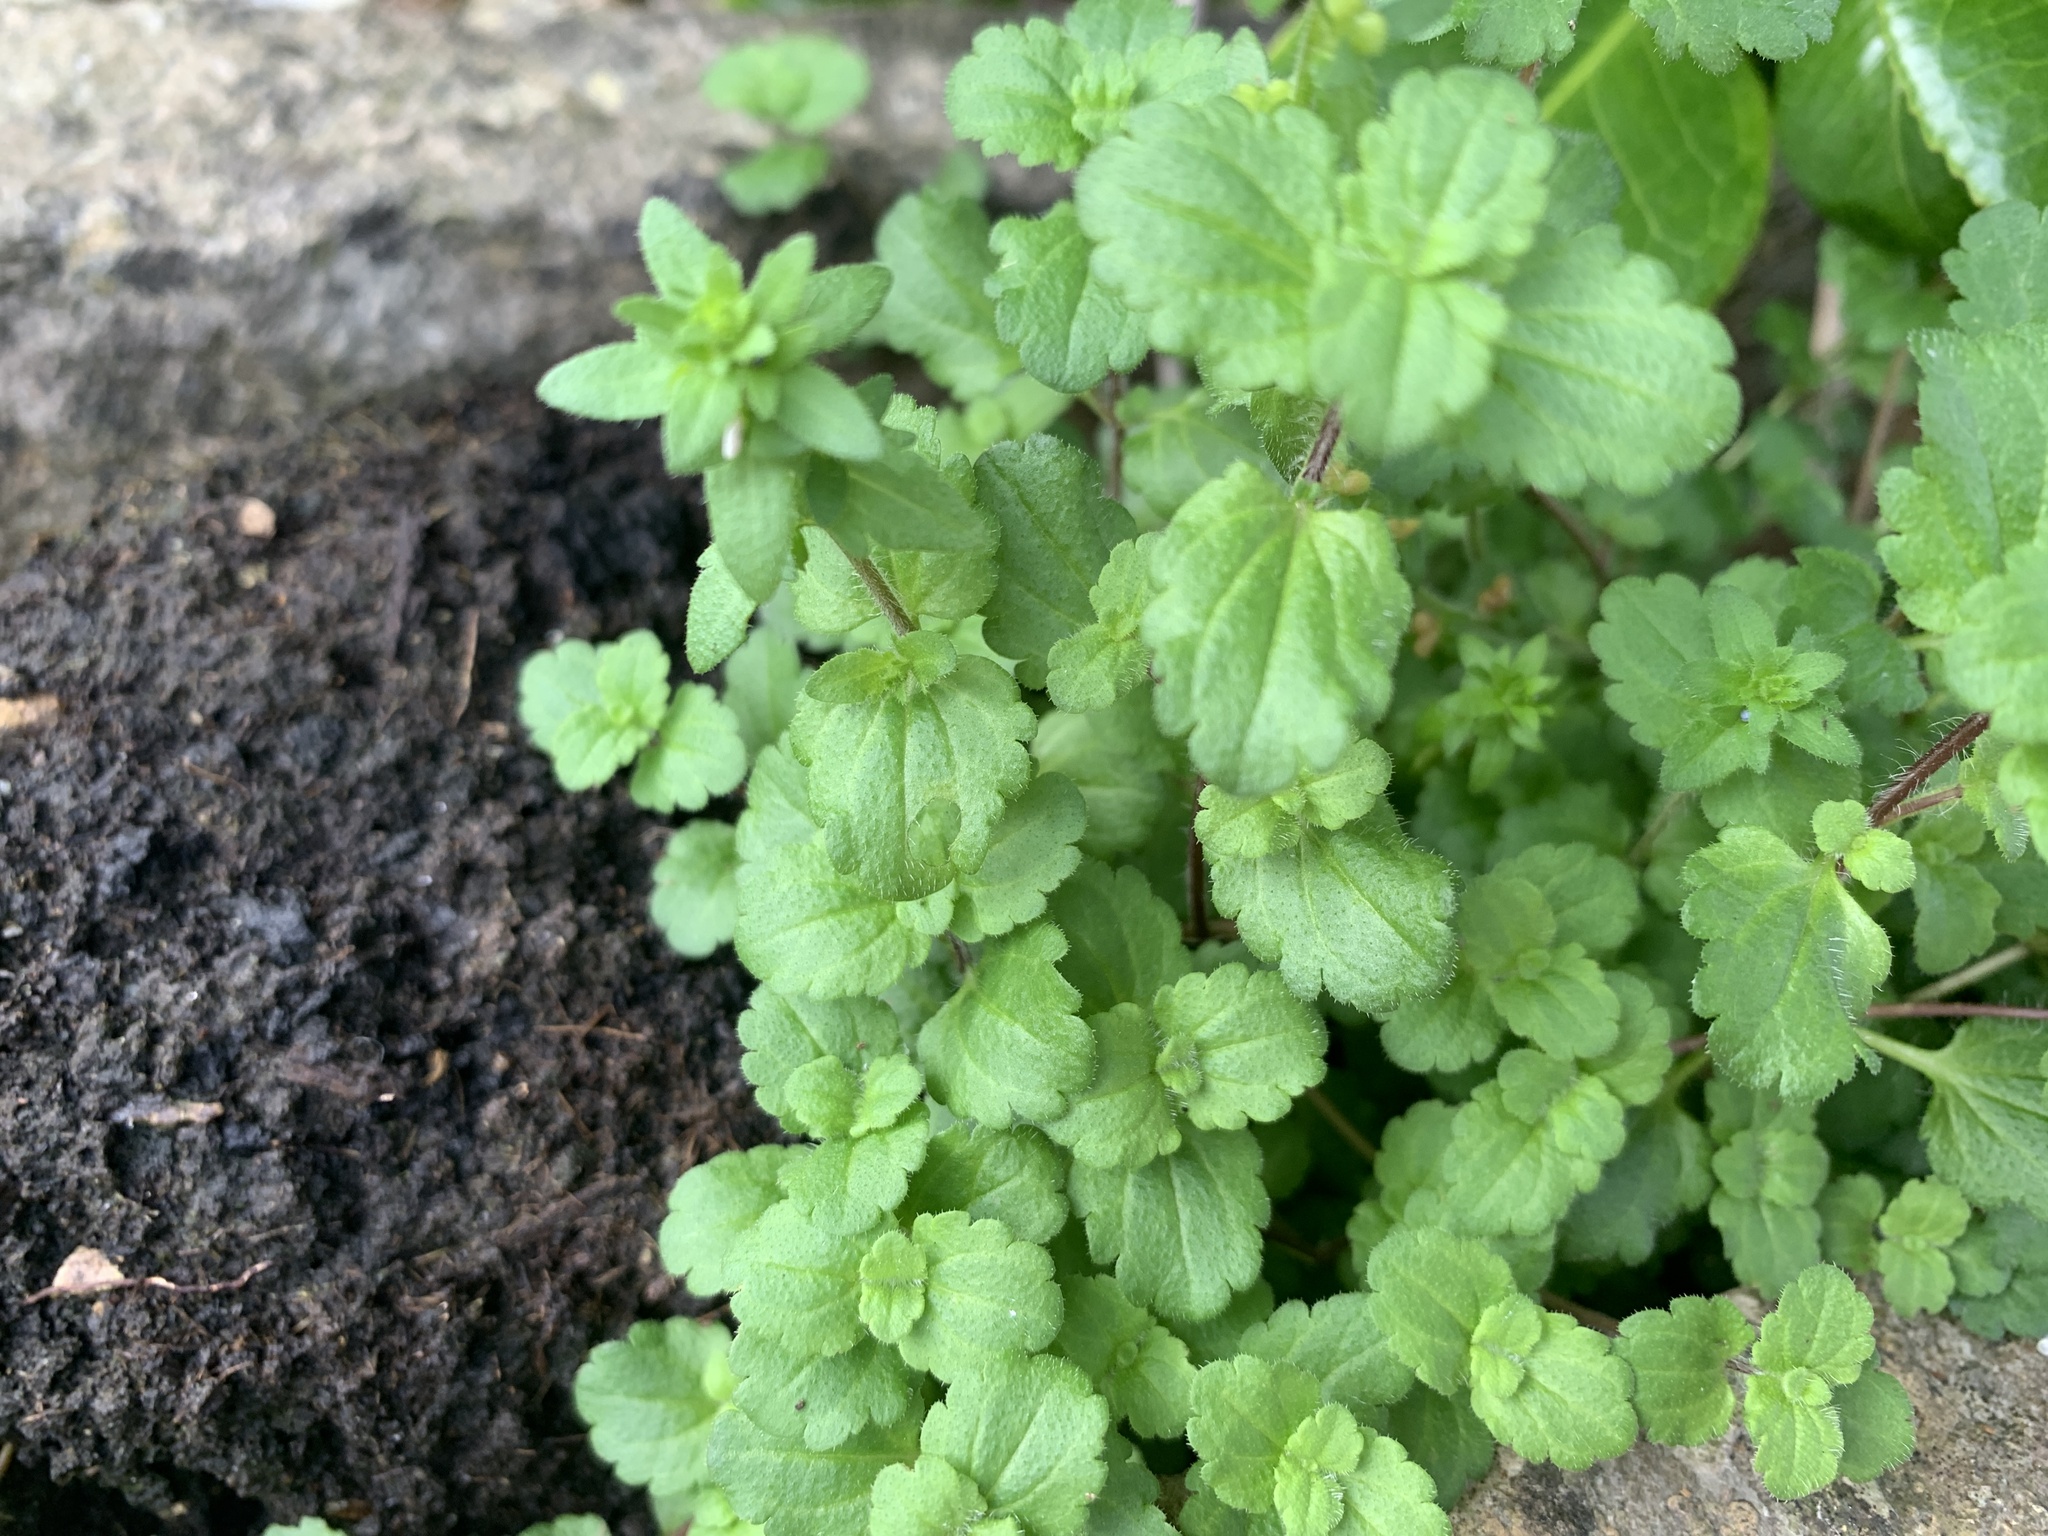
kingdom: Plantae
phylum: Tracheophyta
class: Magnoliopsida
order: Lamiales
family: Plantaginaceae
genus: Veronica
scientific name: Veronica arvensis
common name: Corn speedwell
